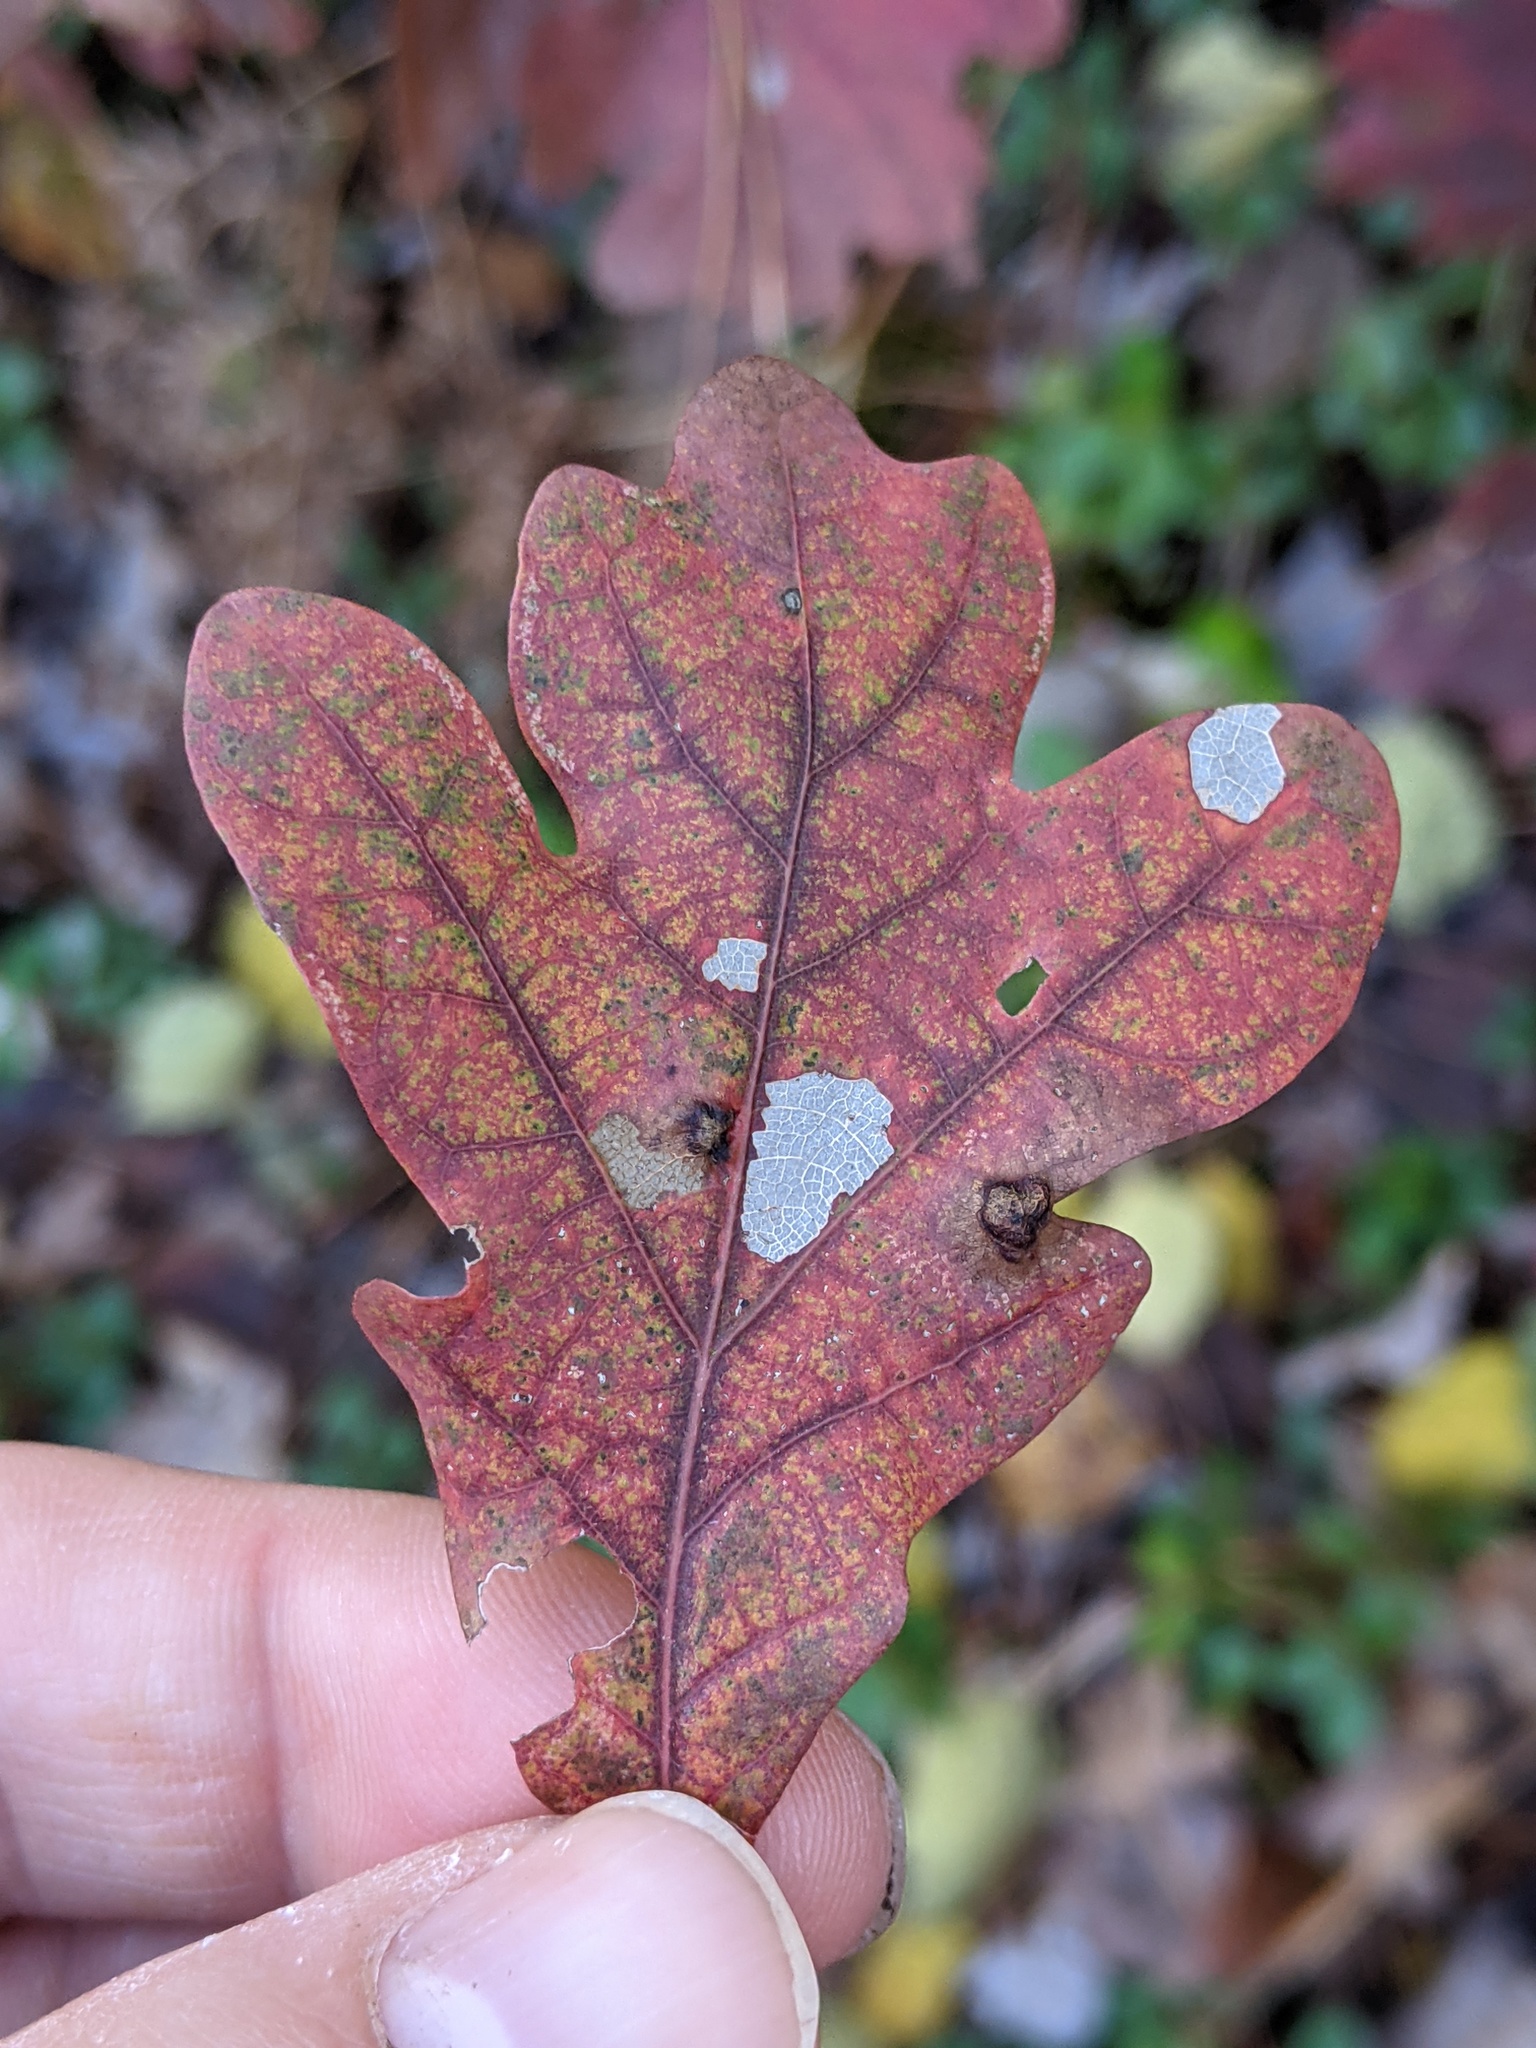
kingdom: Plantae
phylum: Tracheophyta
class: Magnoliopsida
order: Fagales
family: Fagaceae
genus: Quercus
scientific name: Quercus alba
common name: White oak
